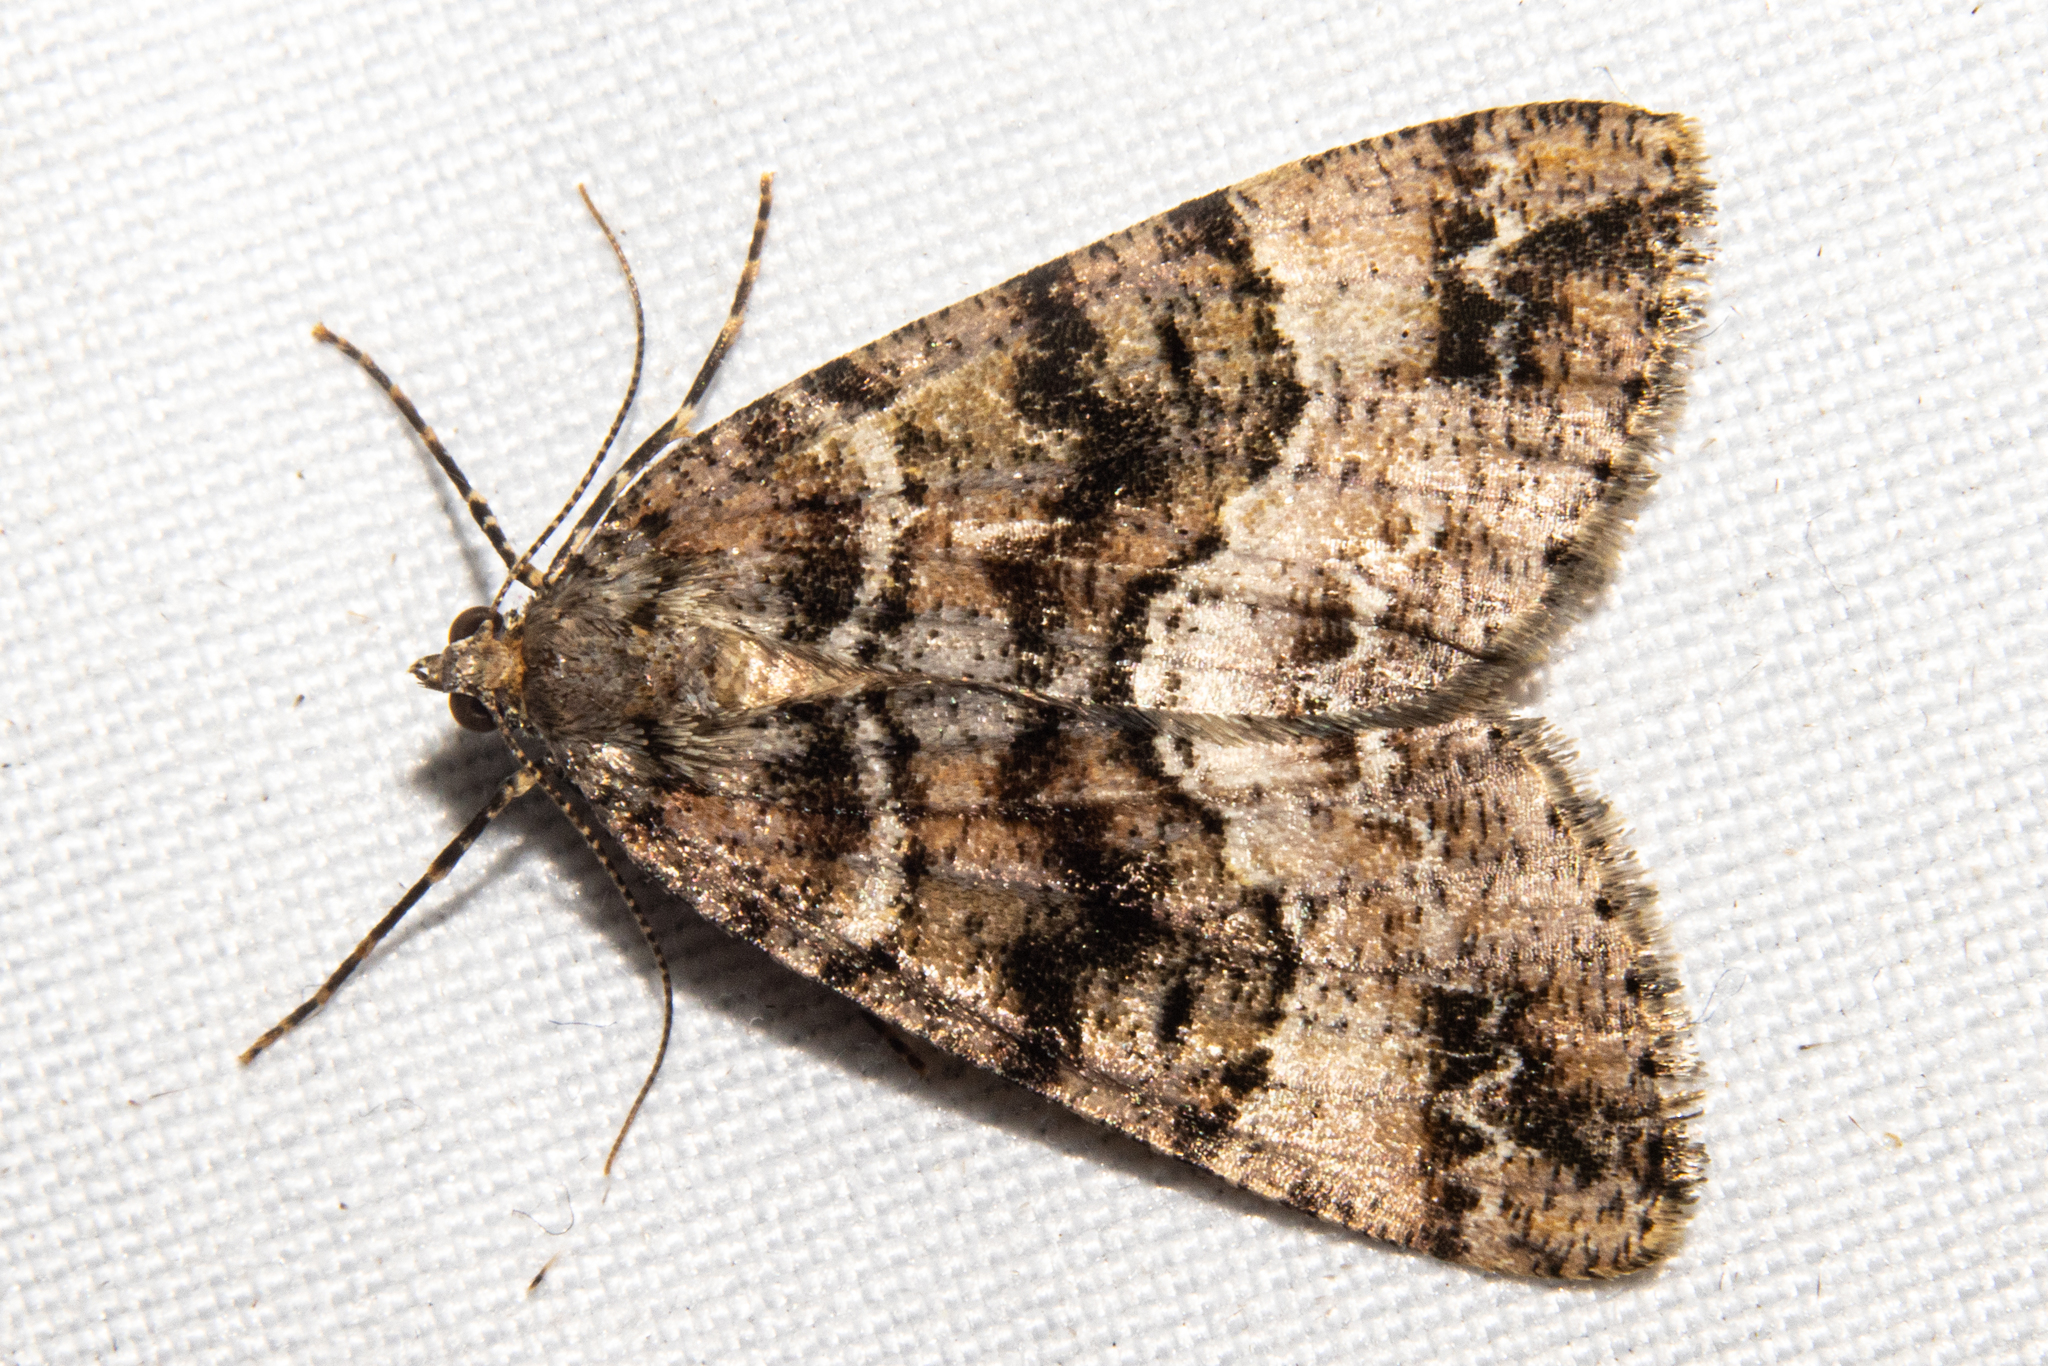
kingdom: Animalia
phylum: Arthropoda
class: Insecta
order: Lepidoptera
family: Geometridae
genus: Pseudocoremia
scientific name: Pseudocoremia productata
